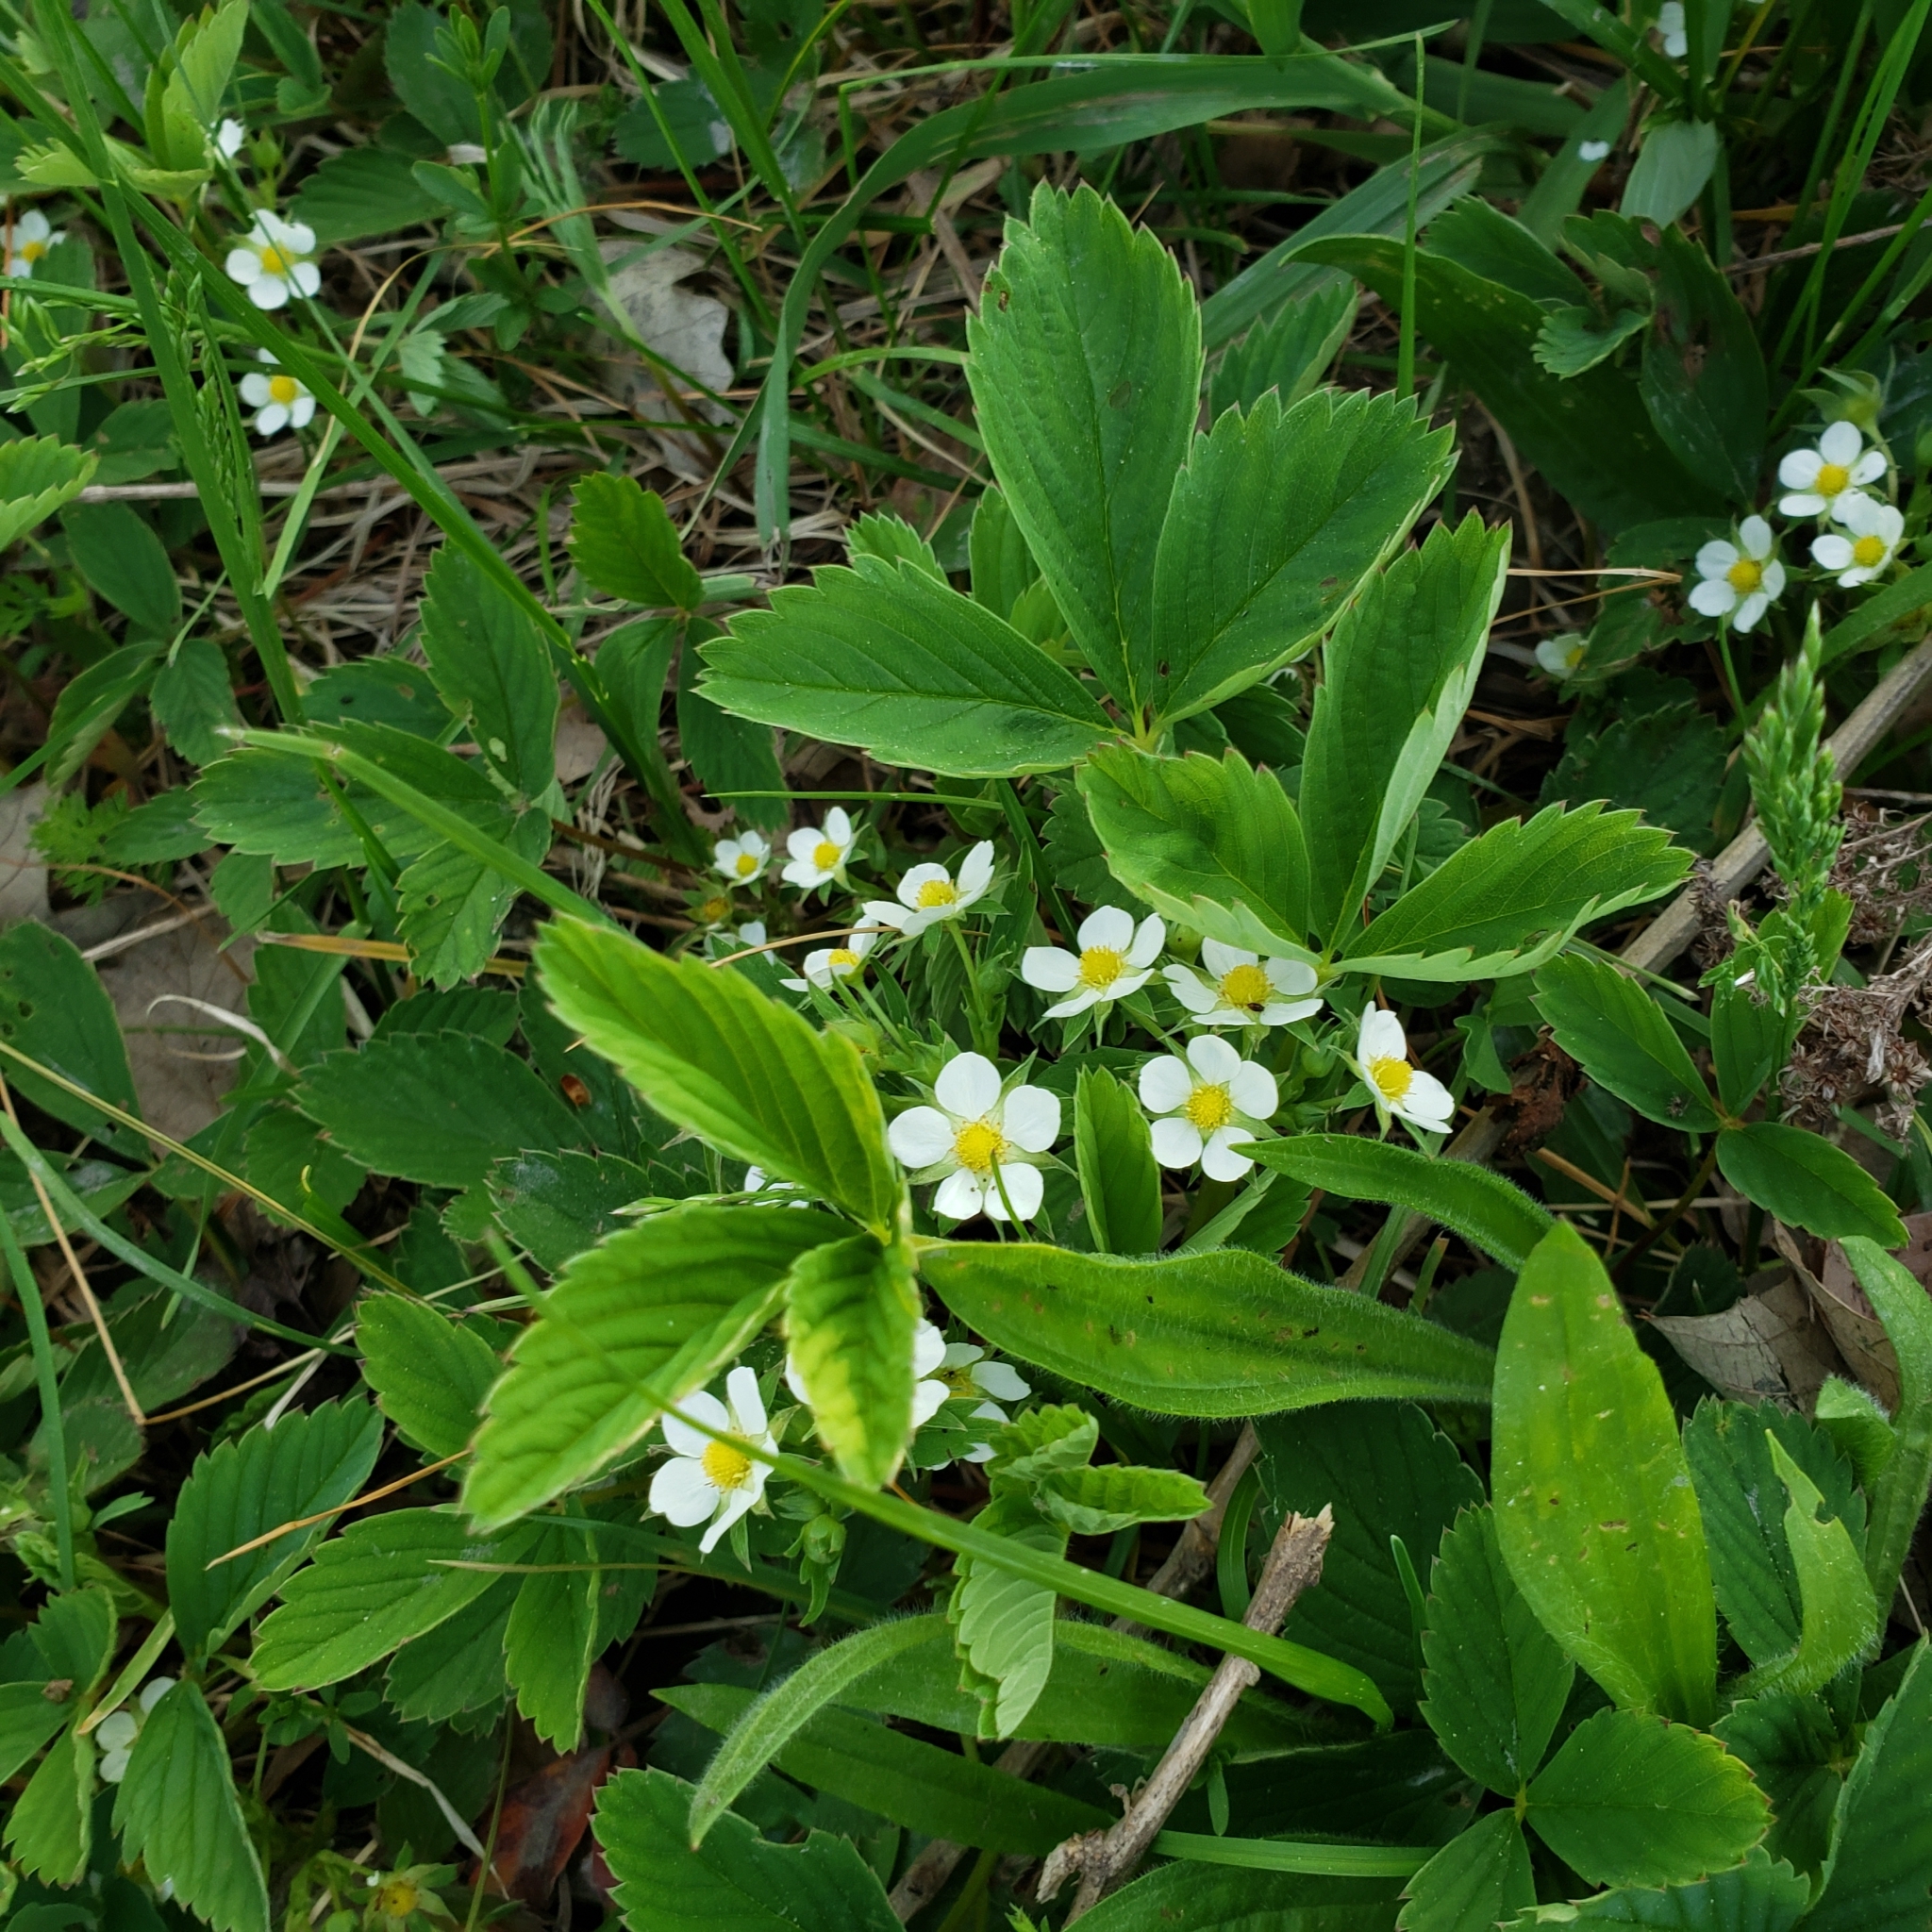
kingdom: Plantae
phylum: Tracheophyta
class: Magnoliopsida
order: Rosales
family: Rosaceae
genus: Fragaria
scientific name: Fragaria virginiana
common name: Thickleaved wild strawberry
